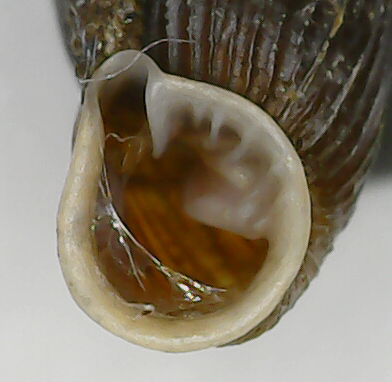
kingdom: Animalia
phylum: Mollusca
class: Gastropoda
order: Stylommatophora
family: Clausiliidae
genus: Macrogastra
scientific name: Macrogastra plicatula
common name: Plicate door snail
